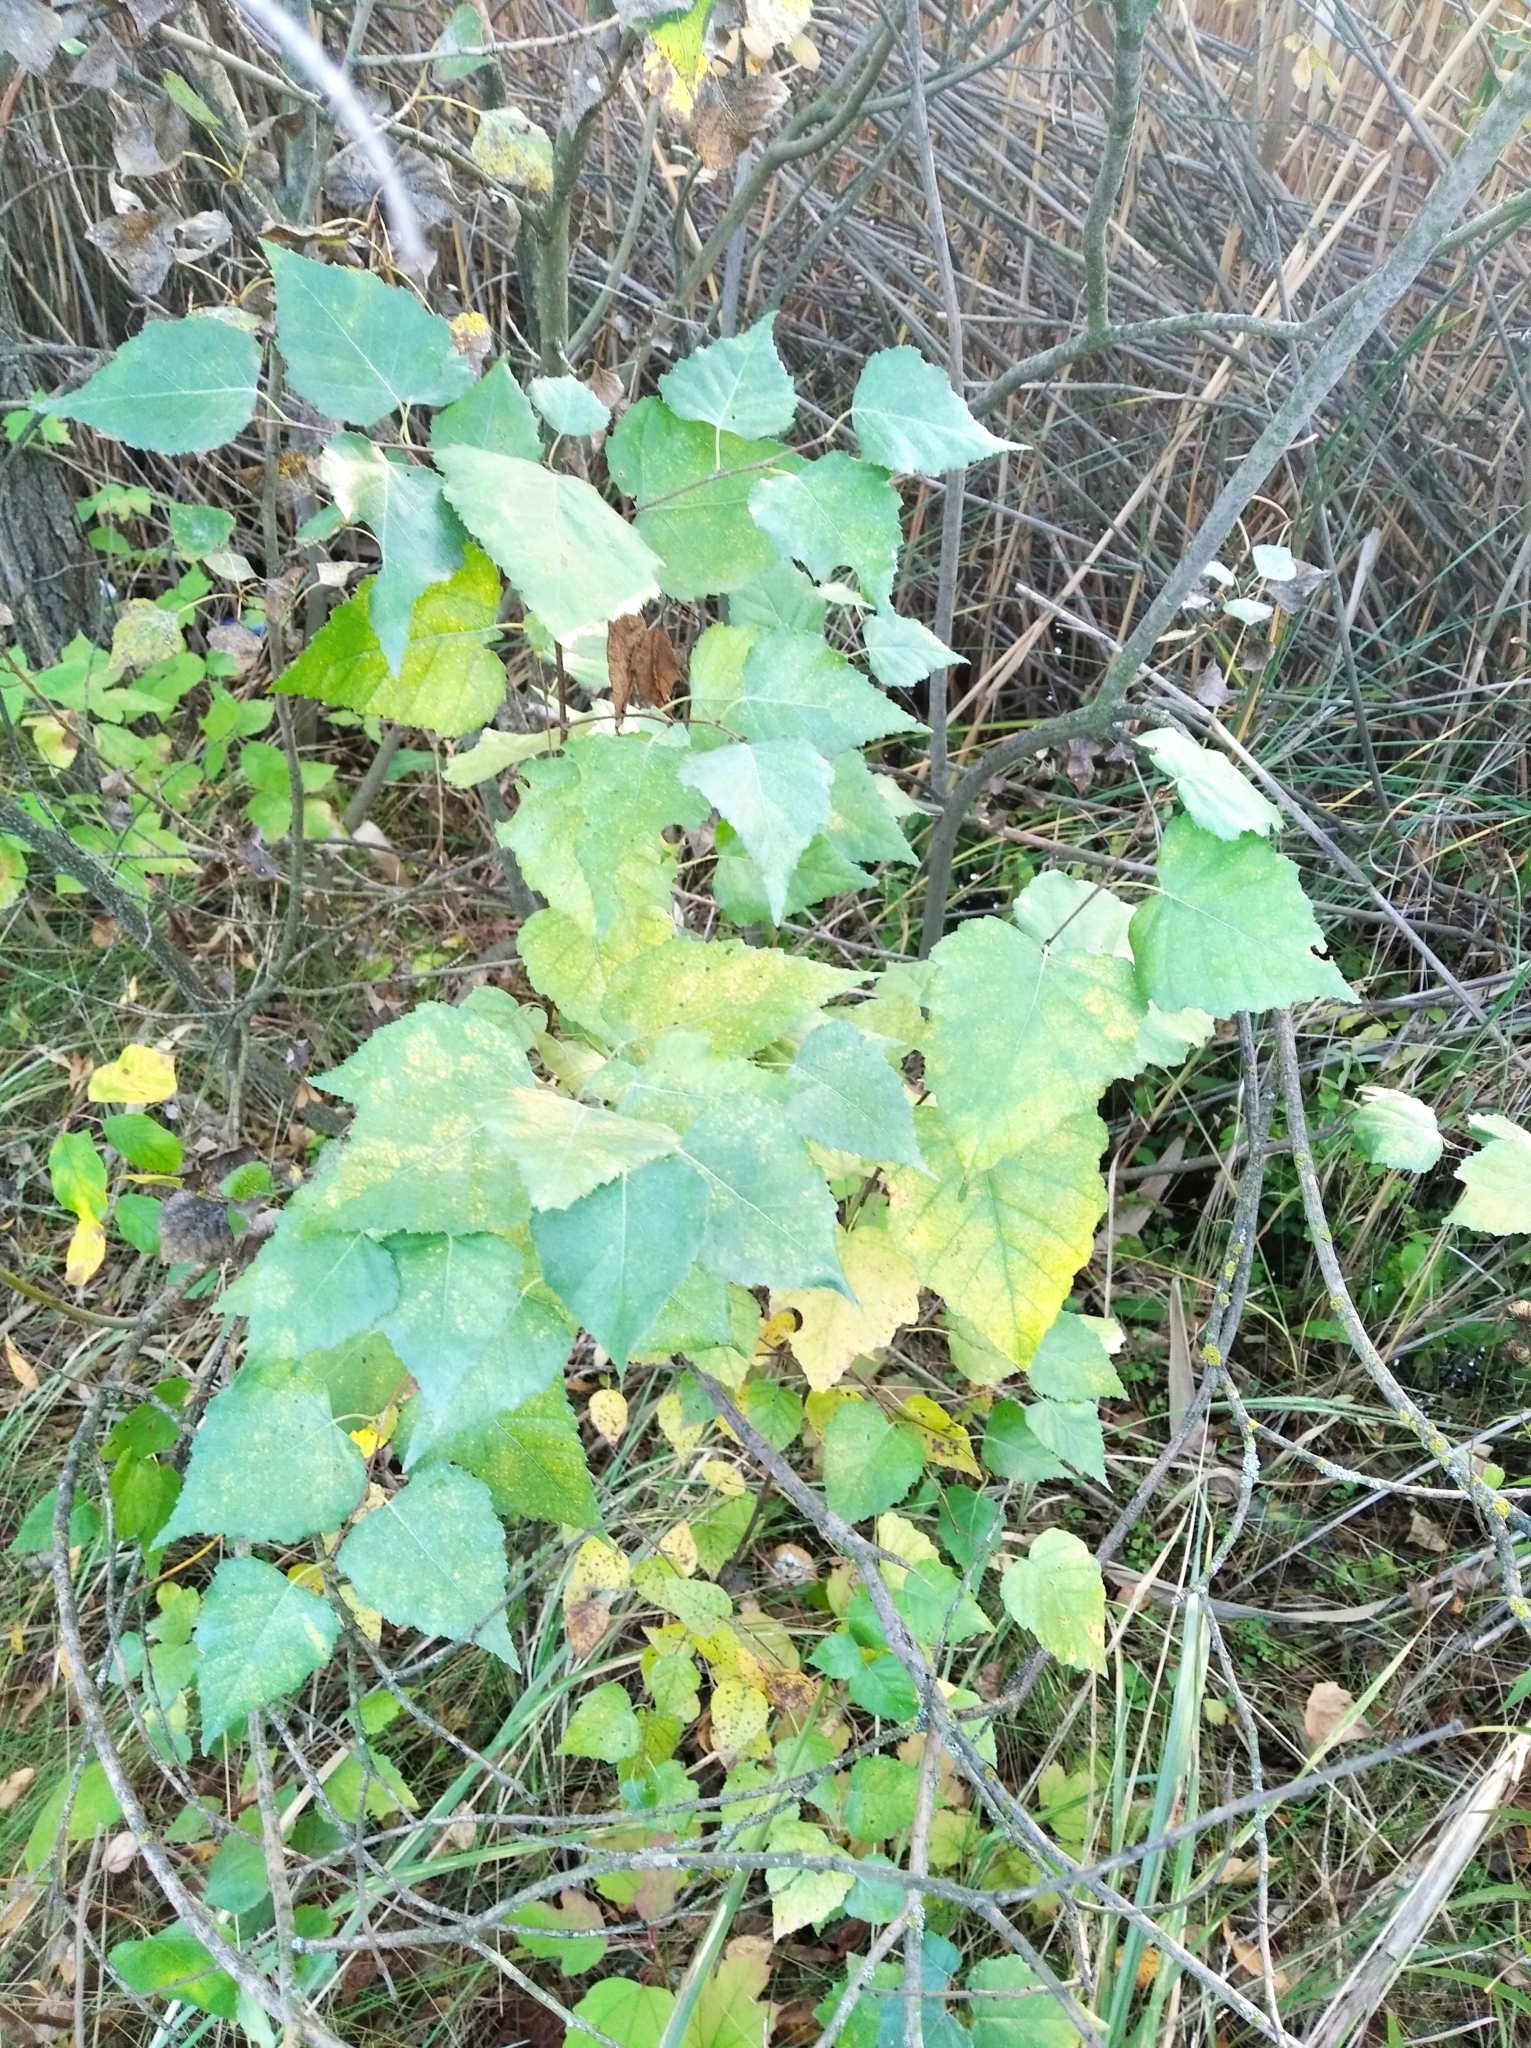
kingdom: Plantae
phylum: Tracheophyta
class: Magnoliopsida
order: Fagales
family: Betulaceae
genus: Betula
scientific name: Betula pendula
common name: Silver birch
